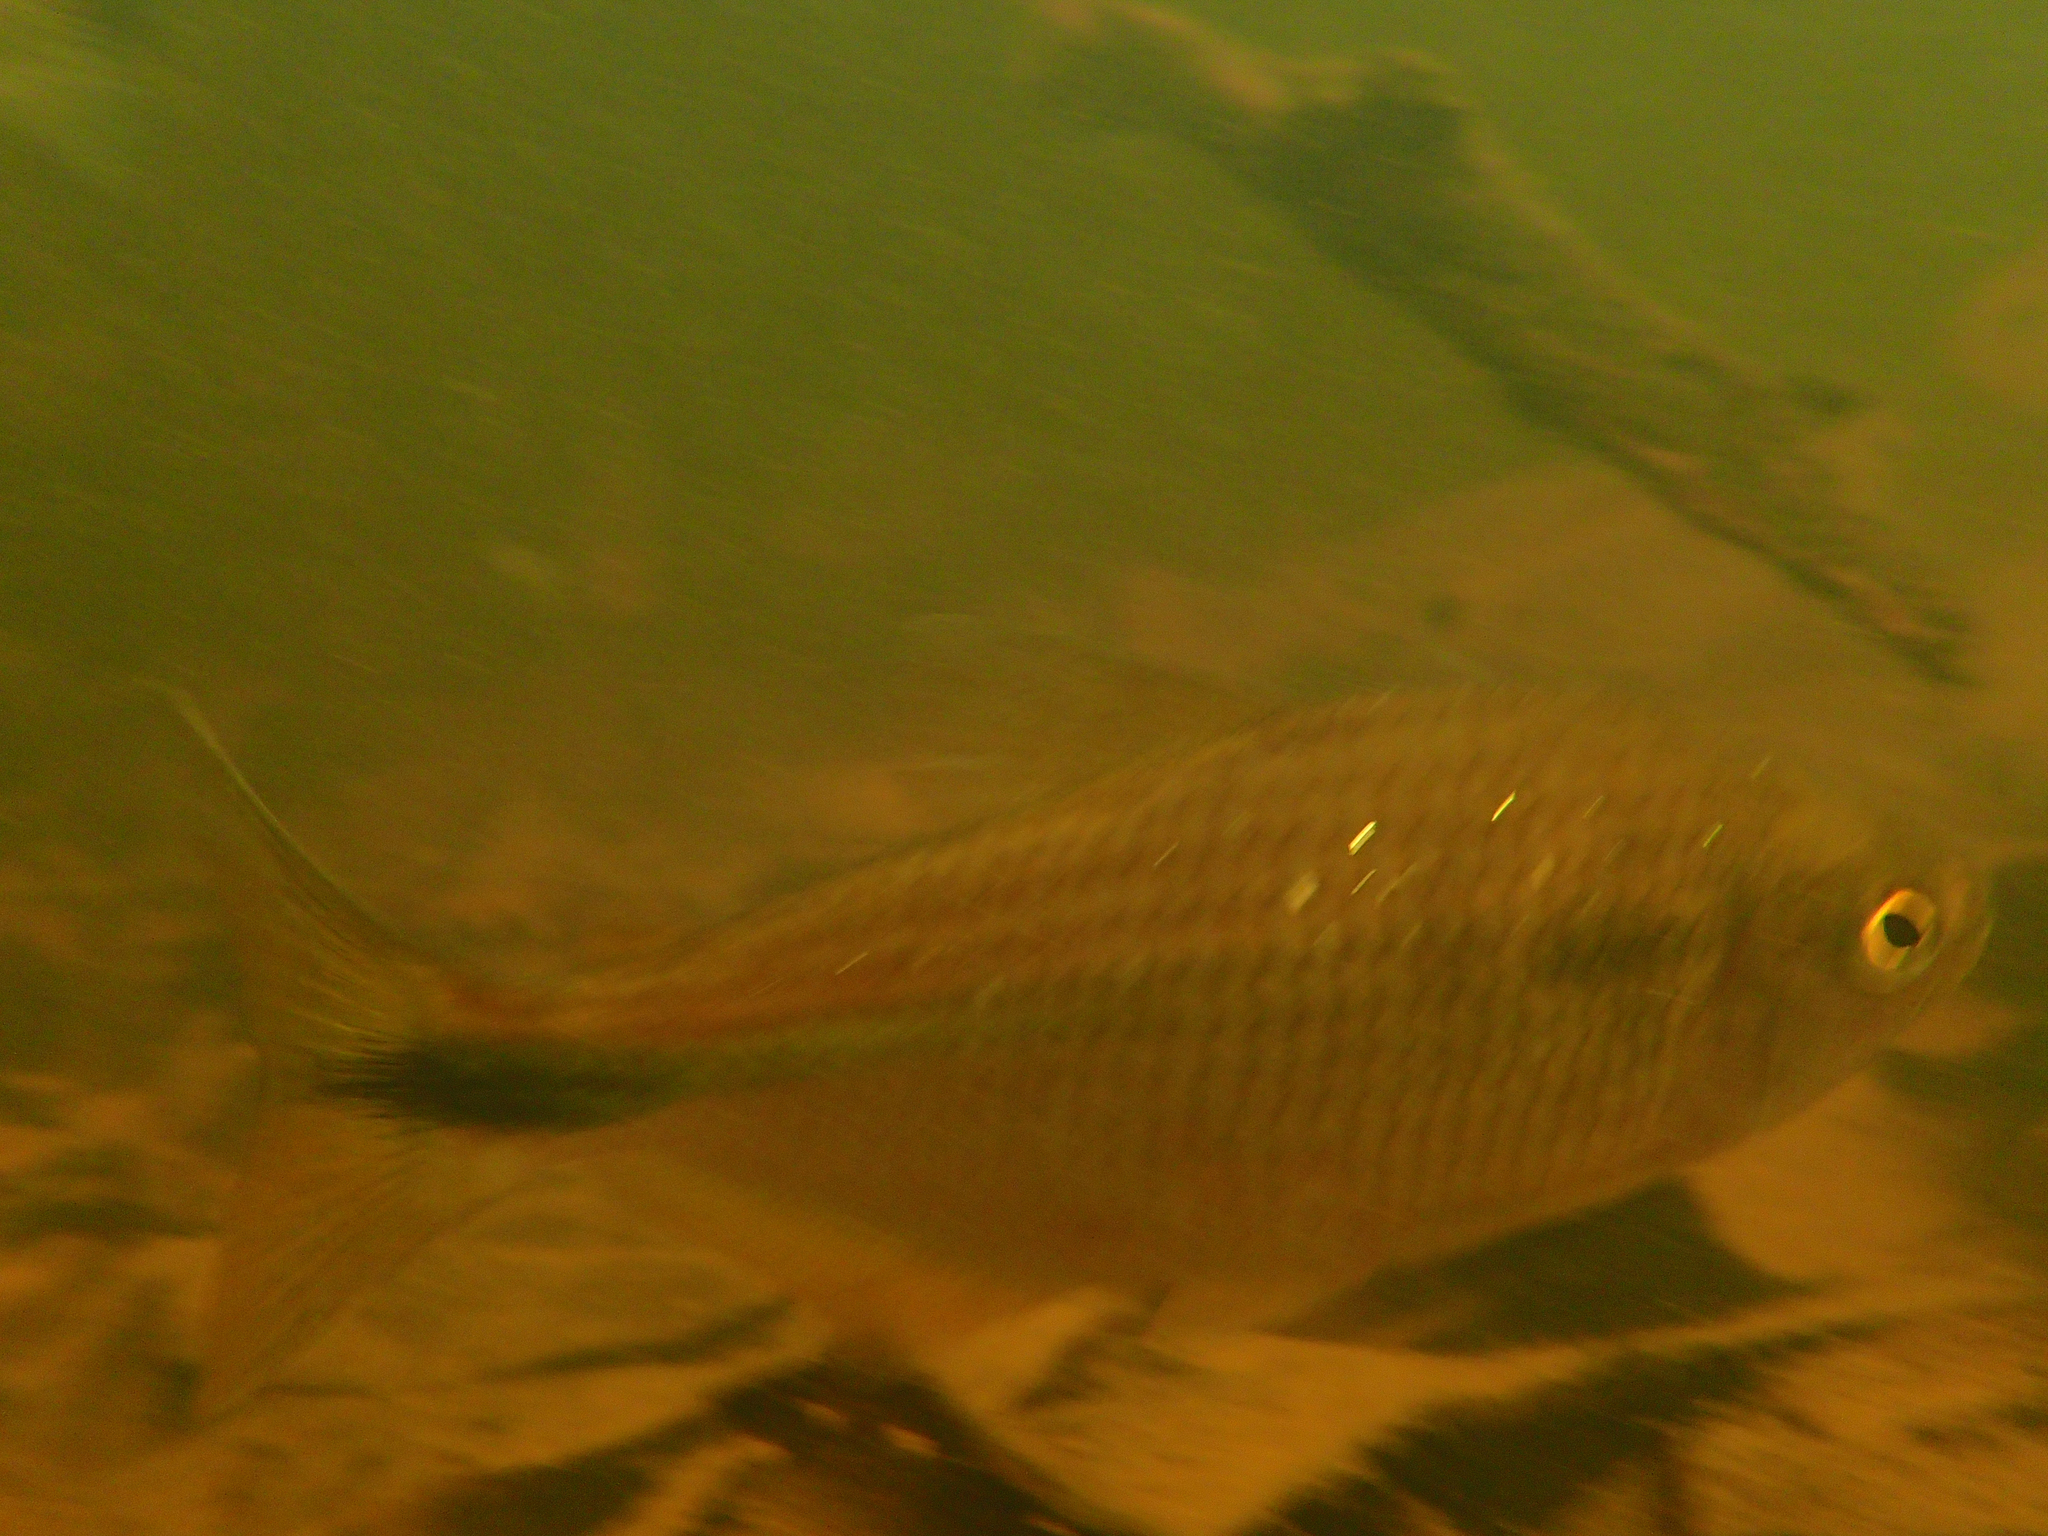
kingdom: Animalia
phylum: Chordata
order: Characiformes
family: Characidae
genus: Astyanax
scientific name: Astyanax bimaculatus
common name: Twospot astyanax
